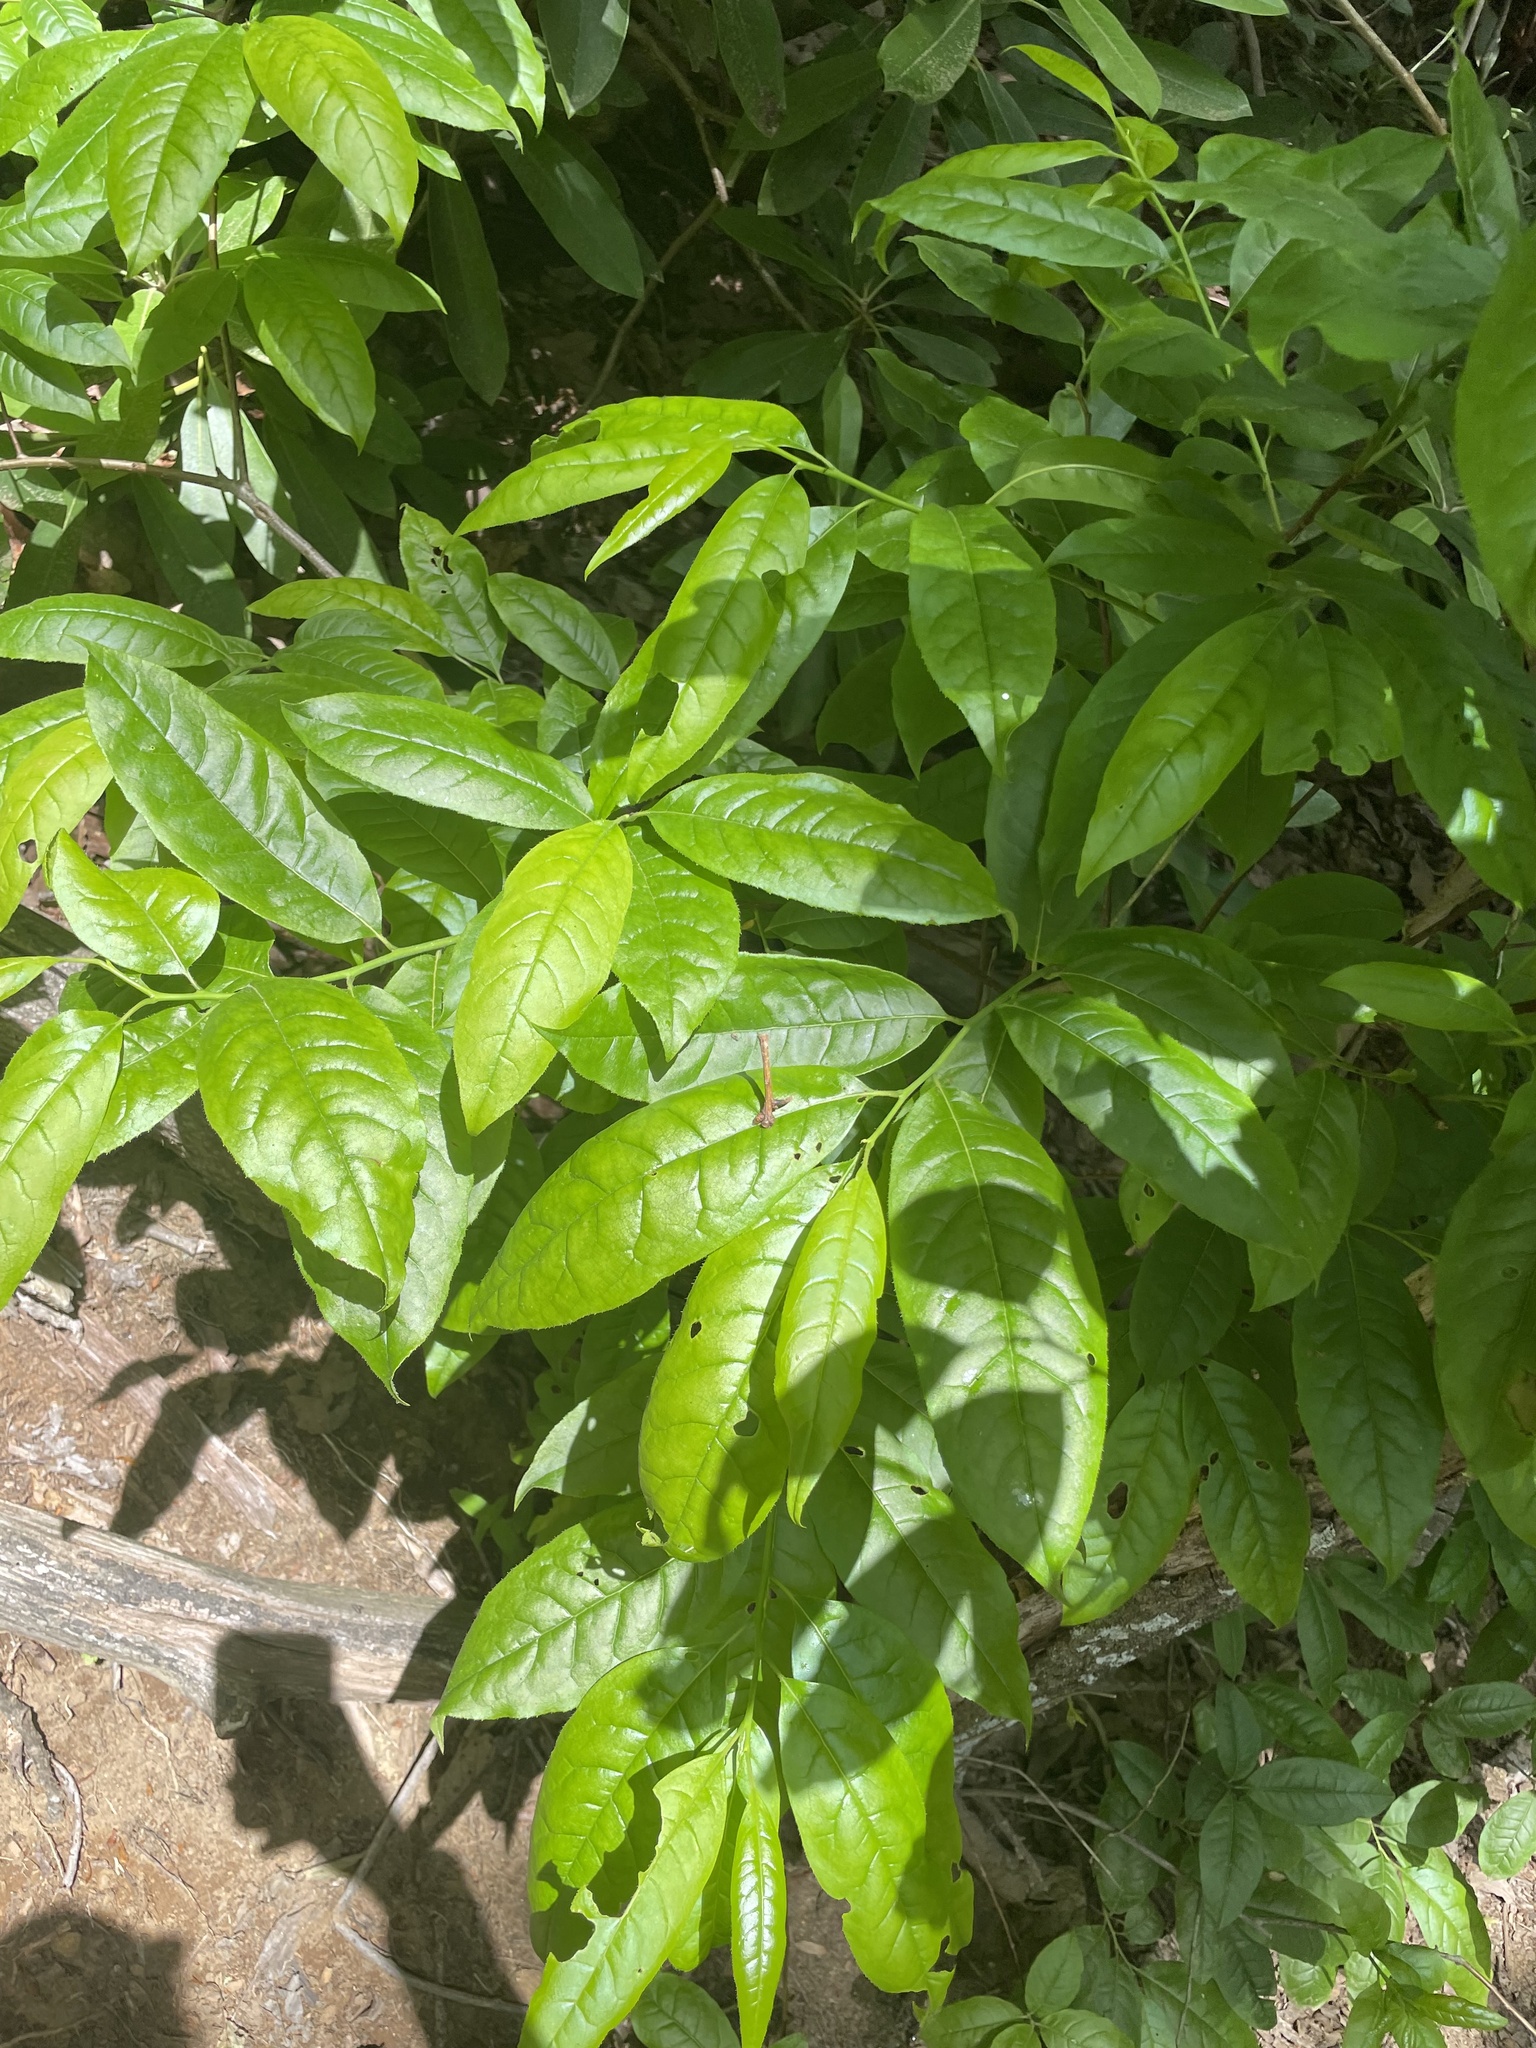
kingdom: Plantae
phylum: Tracheophyta
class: Magnoliopsida
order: Ericales
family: Ericaceae
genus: Oxydendrum
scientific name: Oxydendrum arboreum
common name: Sourwood
